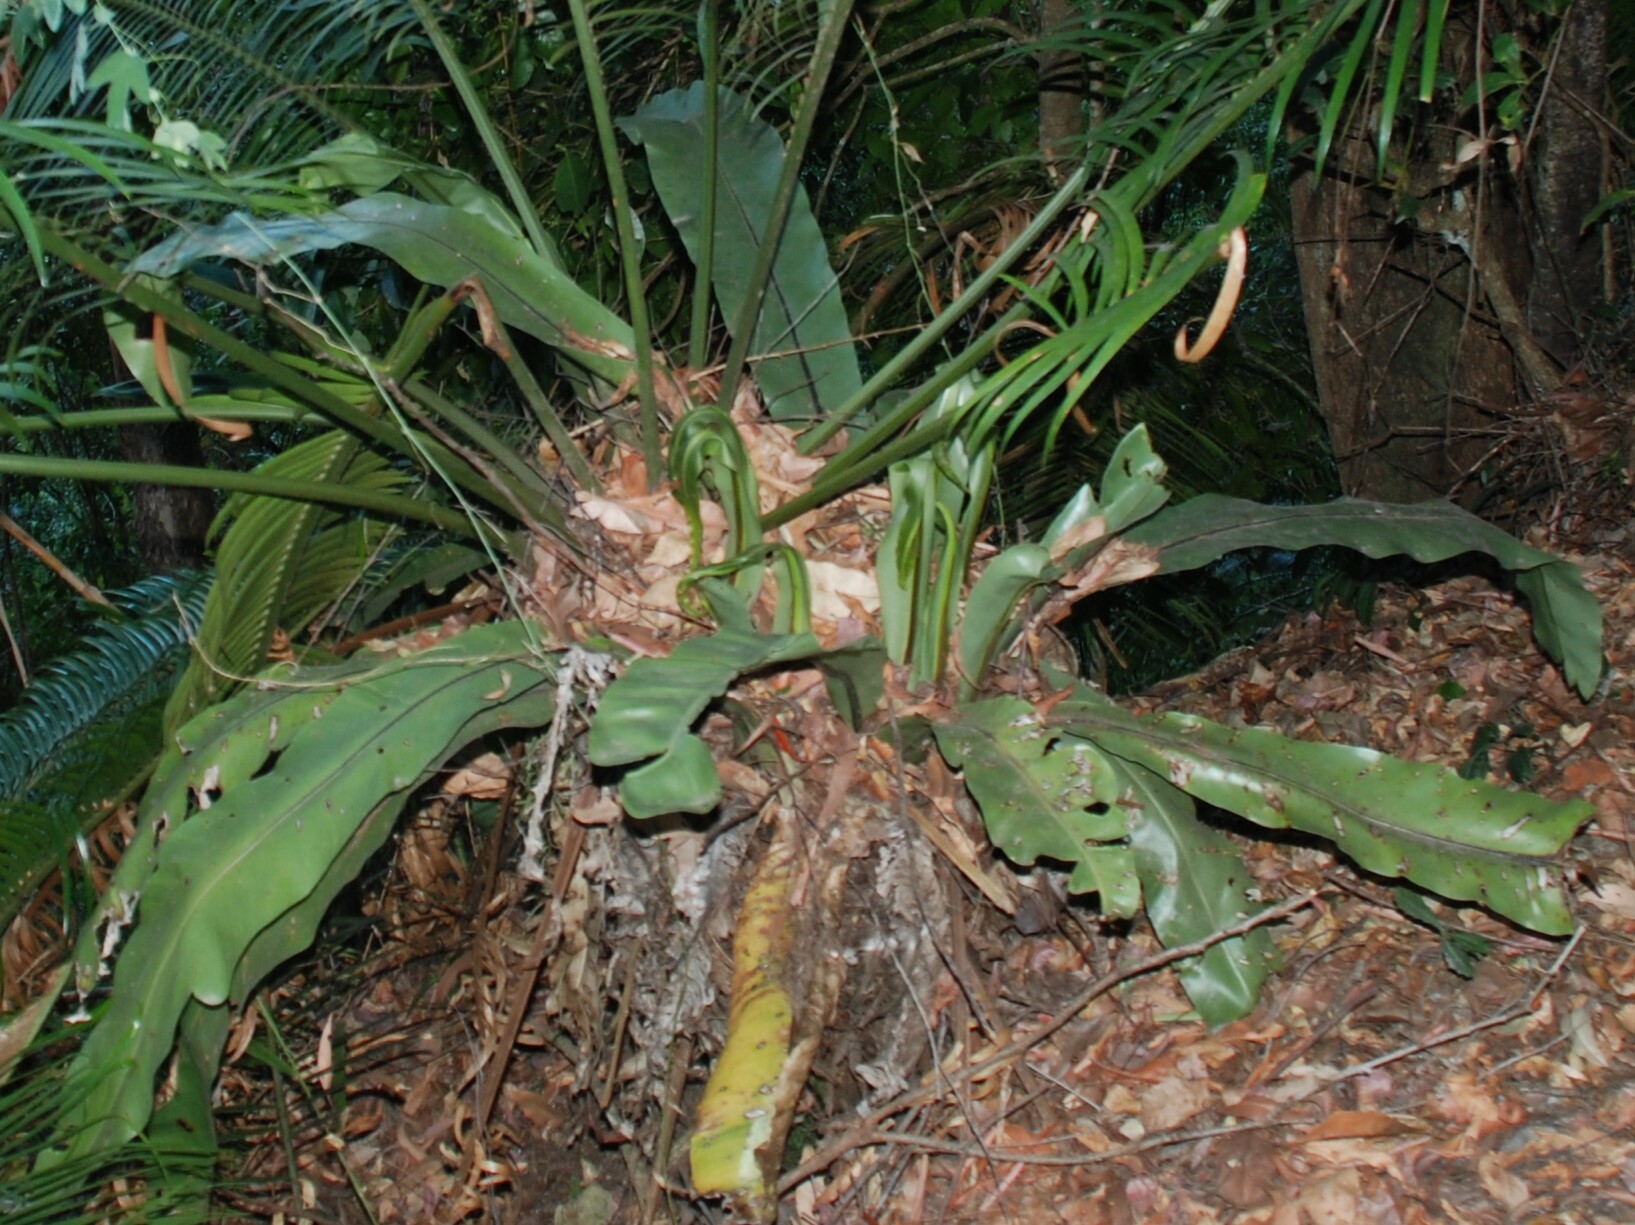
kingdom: Plantae
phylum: Tracheophyta
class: Polypodiopsida
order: Polypodiales
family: Aspleniaceae
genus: Asplenium
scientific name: Asplenium australasicum
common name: Bird's-nest fern
